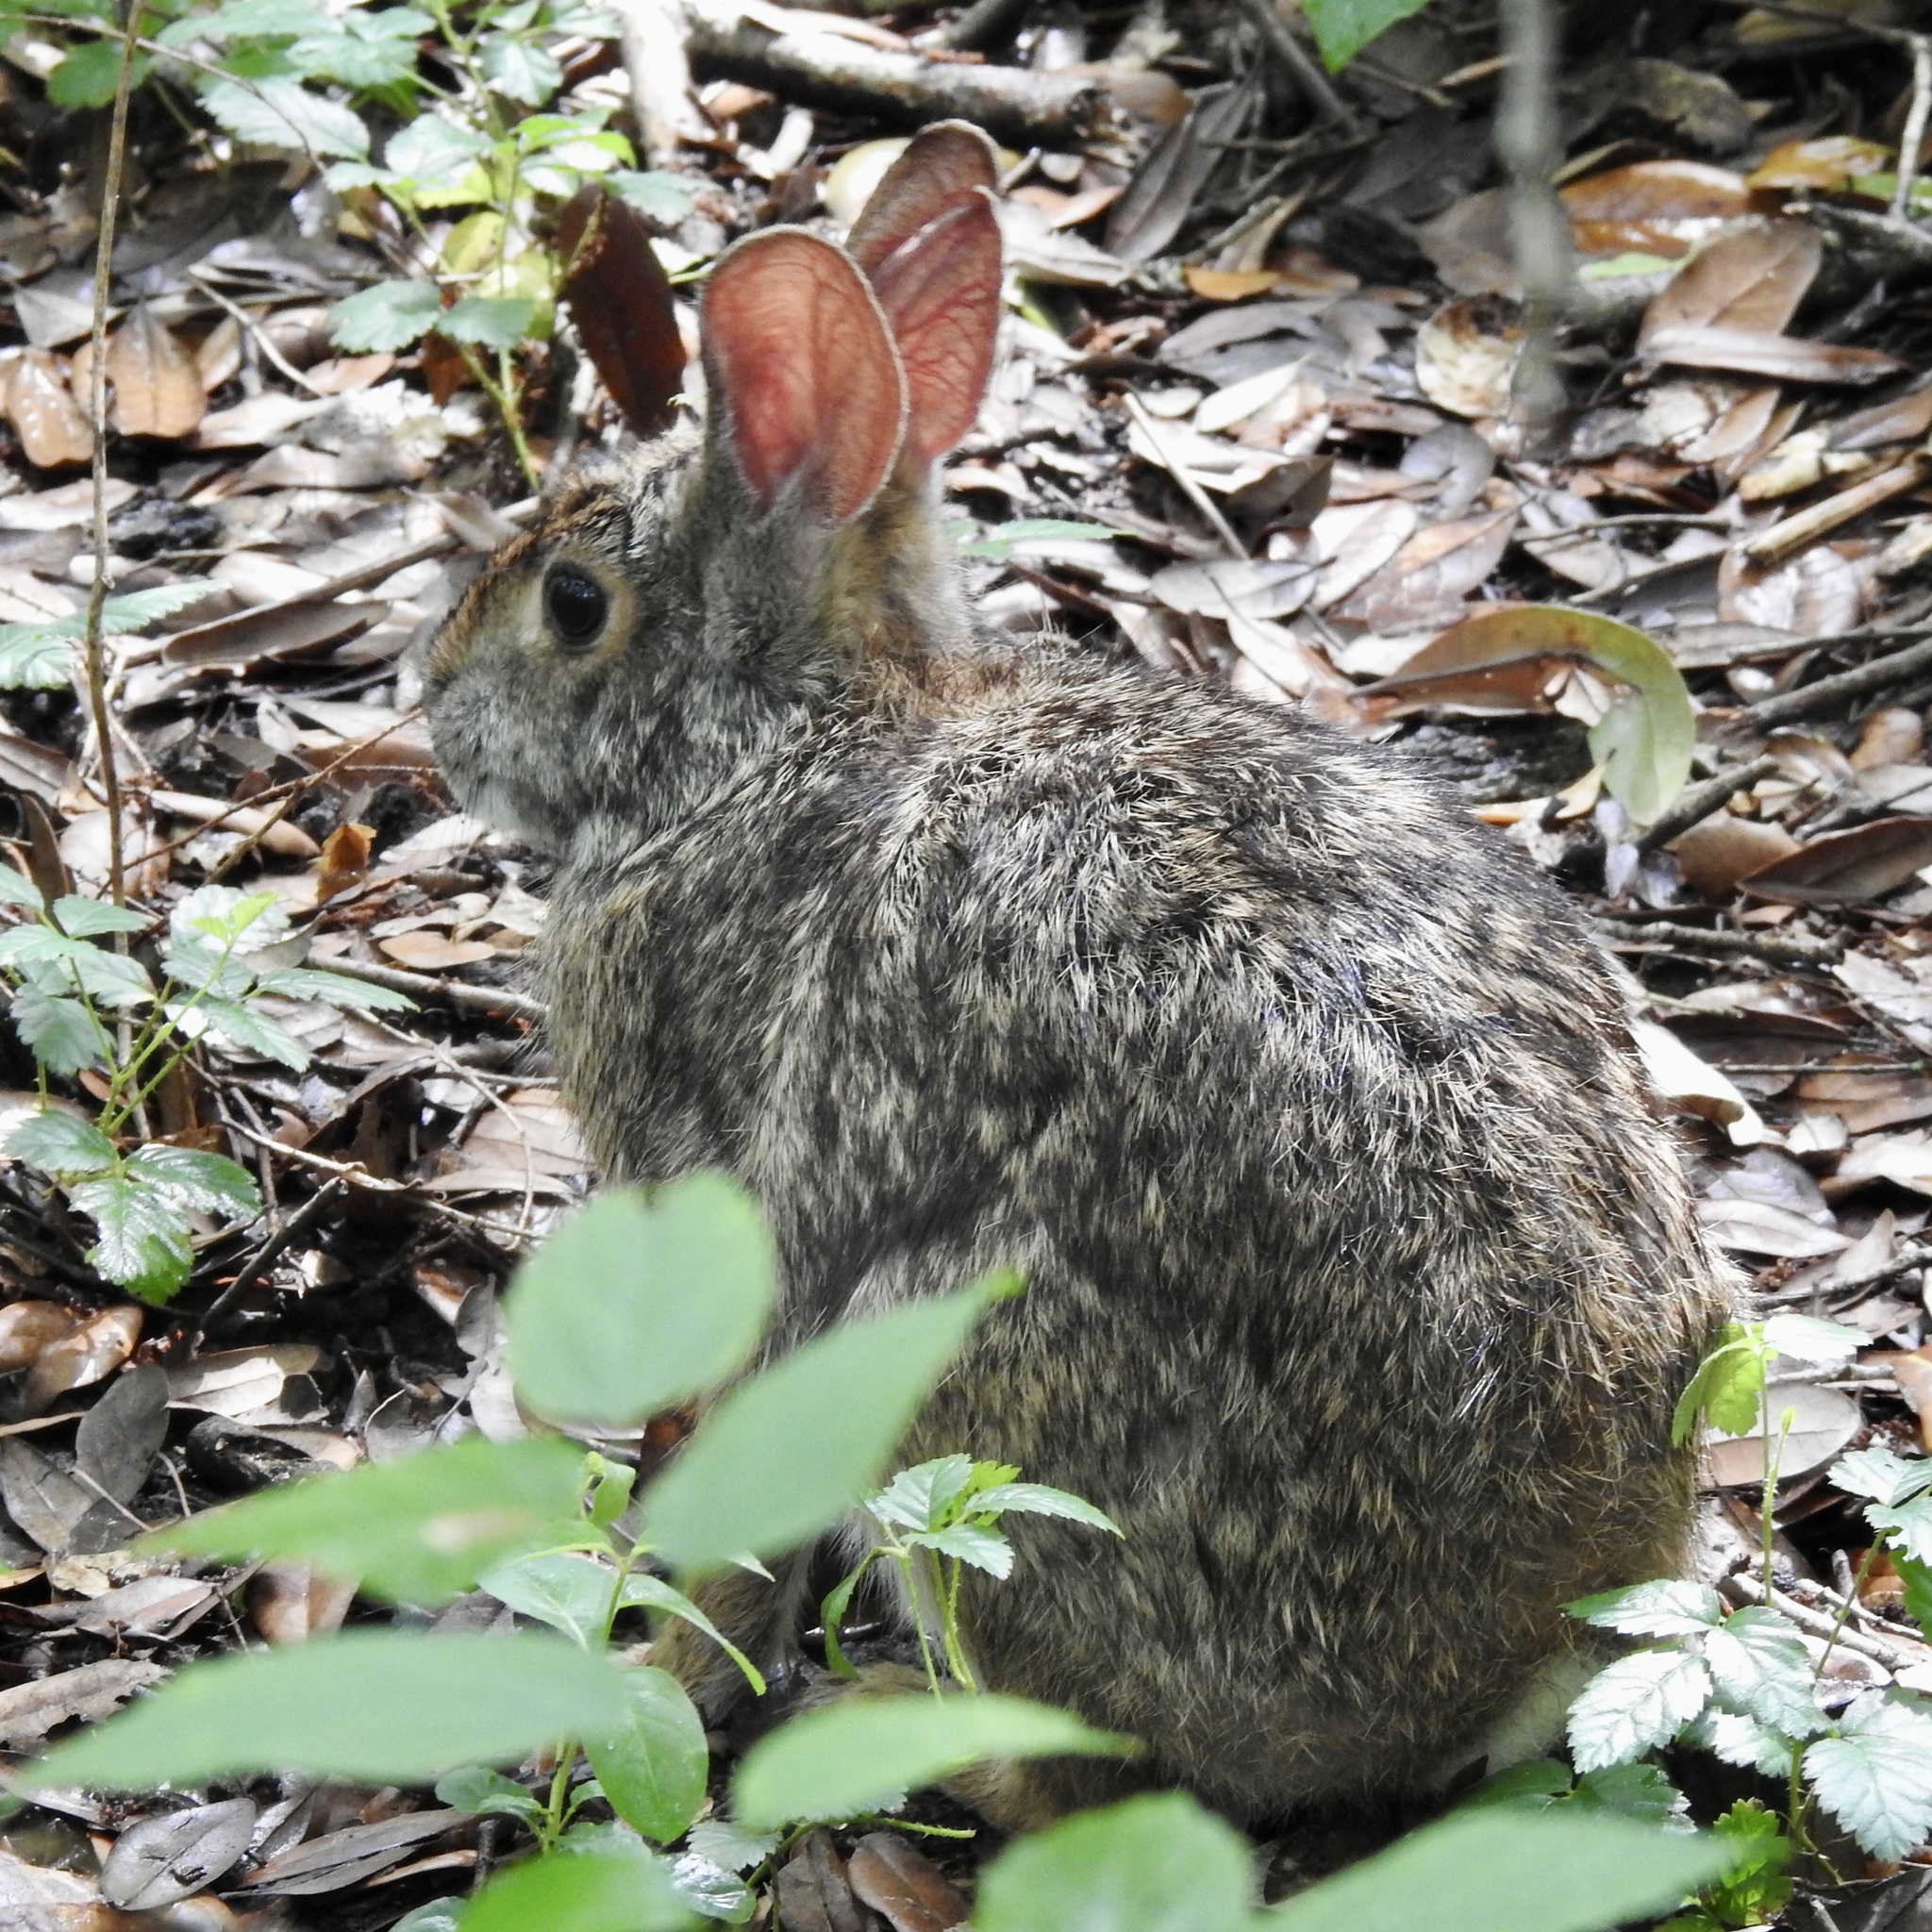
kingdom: Animalia
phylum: Chordata
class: Mammalia
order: Lagomorpha
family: Leporidae
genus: Sylvilagus
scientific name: Sylvilagus aquaticus
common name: Swamp rabbit
